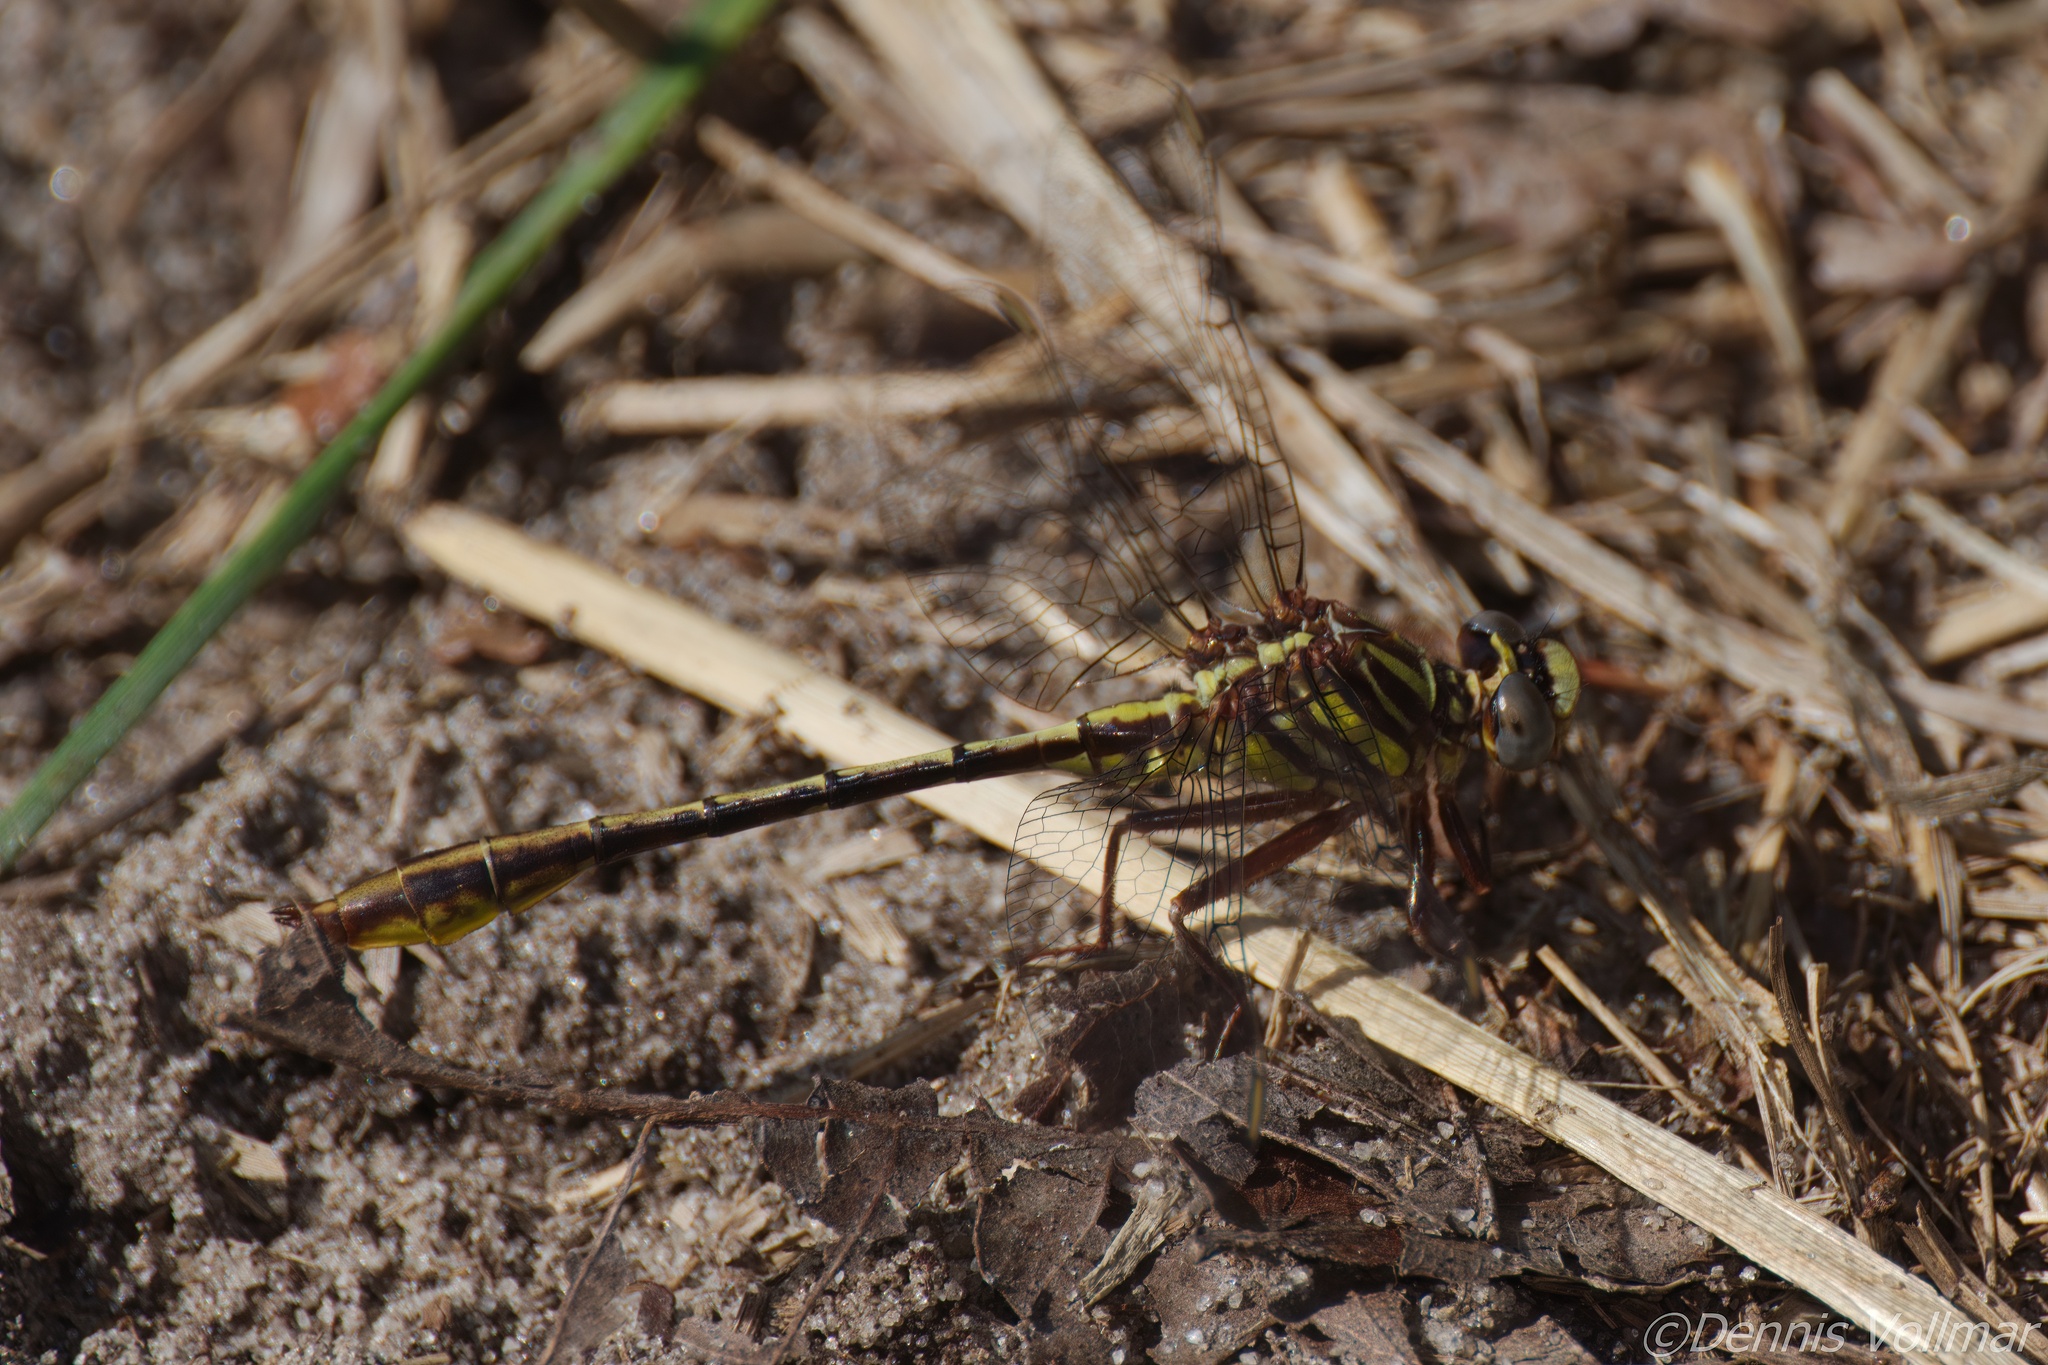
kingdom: Animalia
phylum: Arthropoda
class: Insecta
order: Odonata
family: Gomphidae
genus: Phanogomphus
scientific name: Phanogomphus minutus
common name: Cypress clubtail
